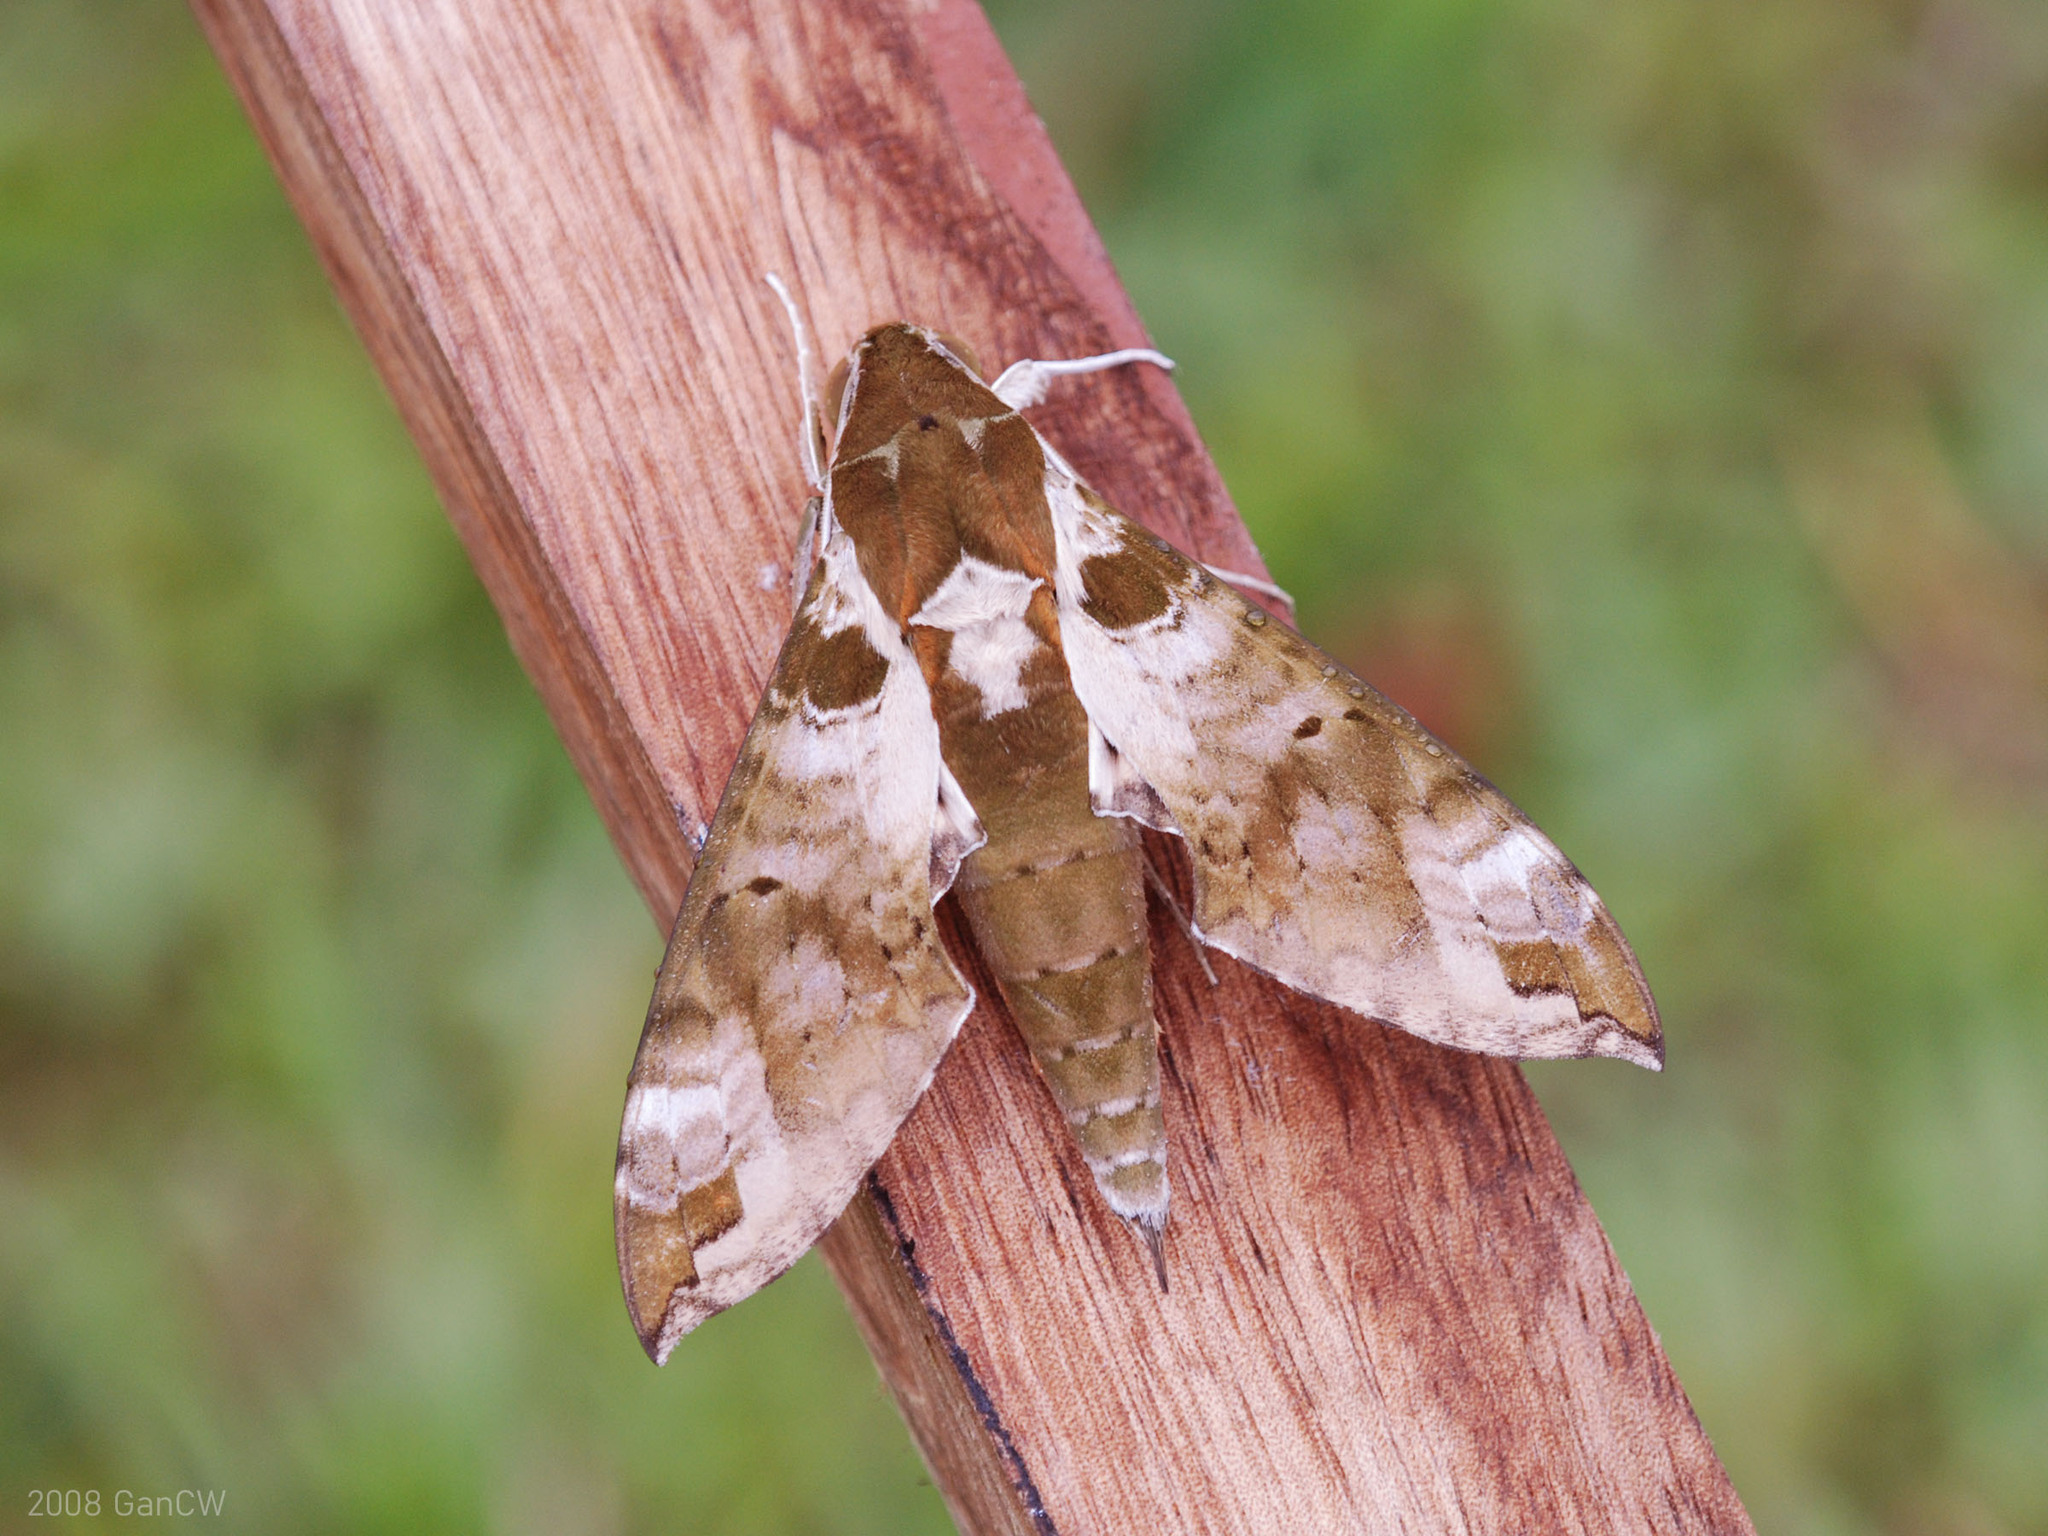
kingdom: Animalia
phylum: Arthropoda
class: Insecta
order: Lepidoptera
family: Sphingidae
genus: Cechenena
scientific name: Cechenena helops
